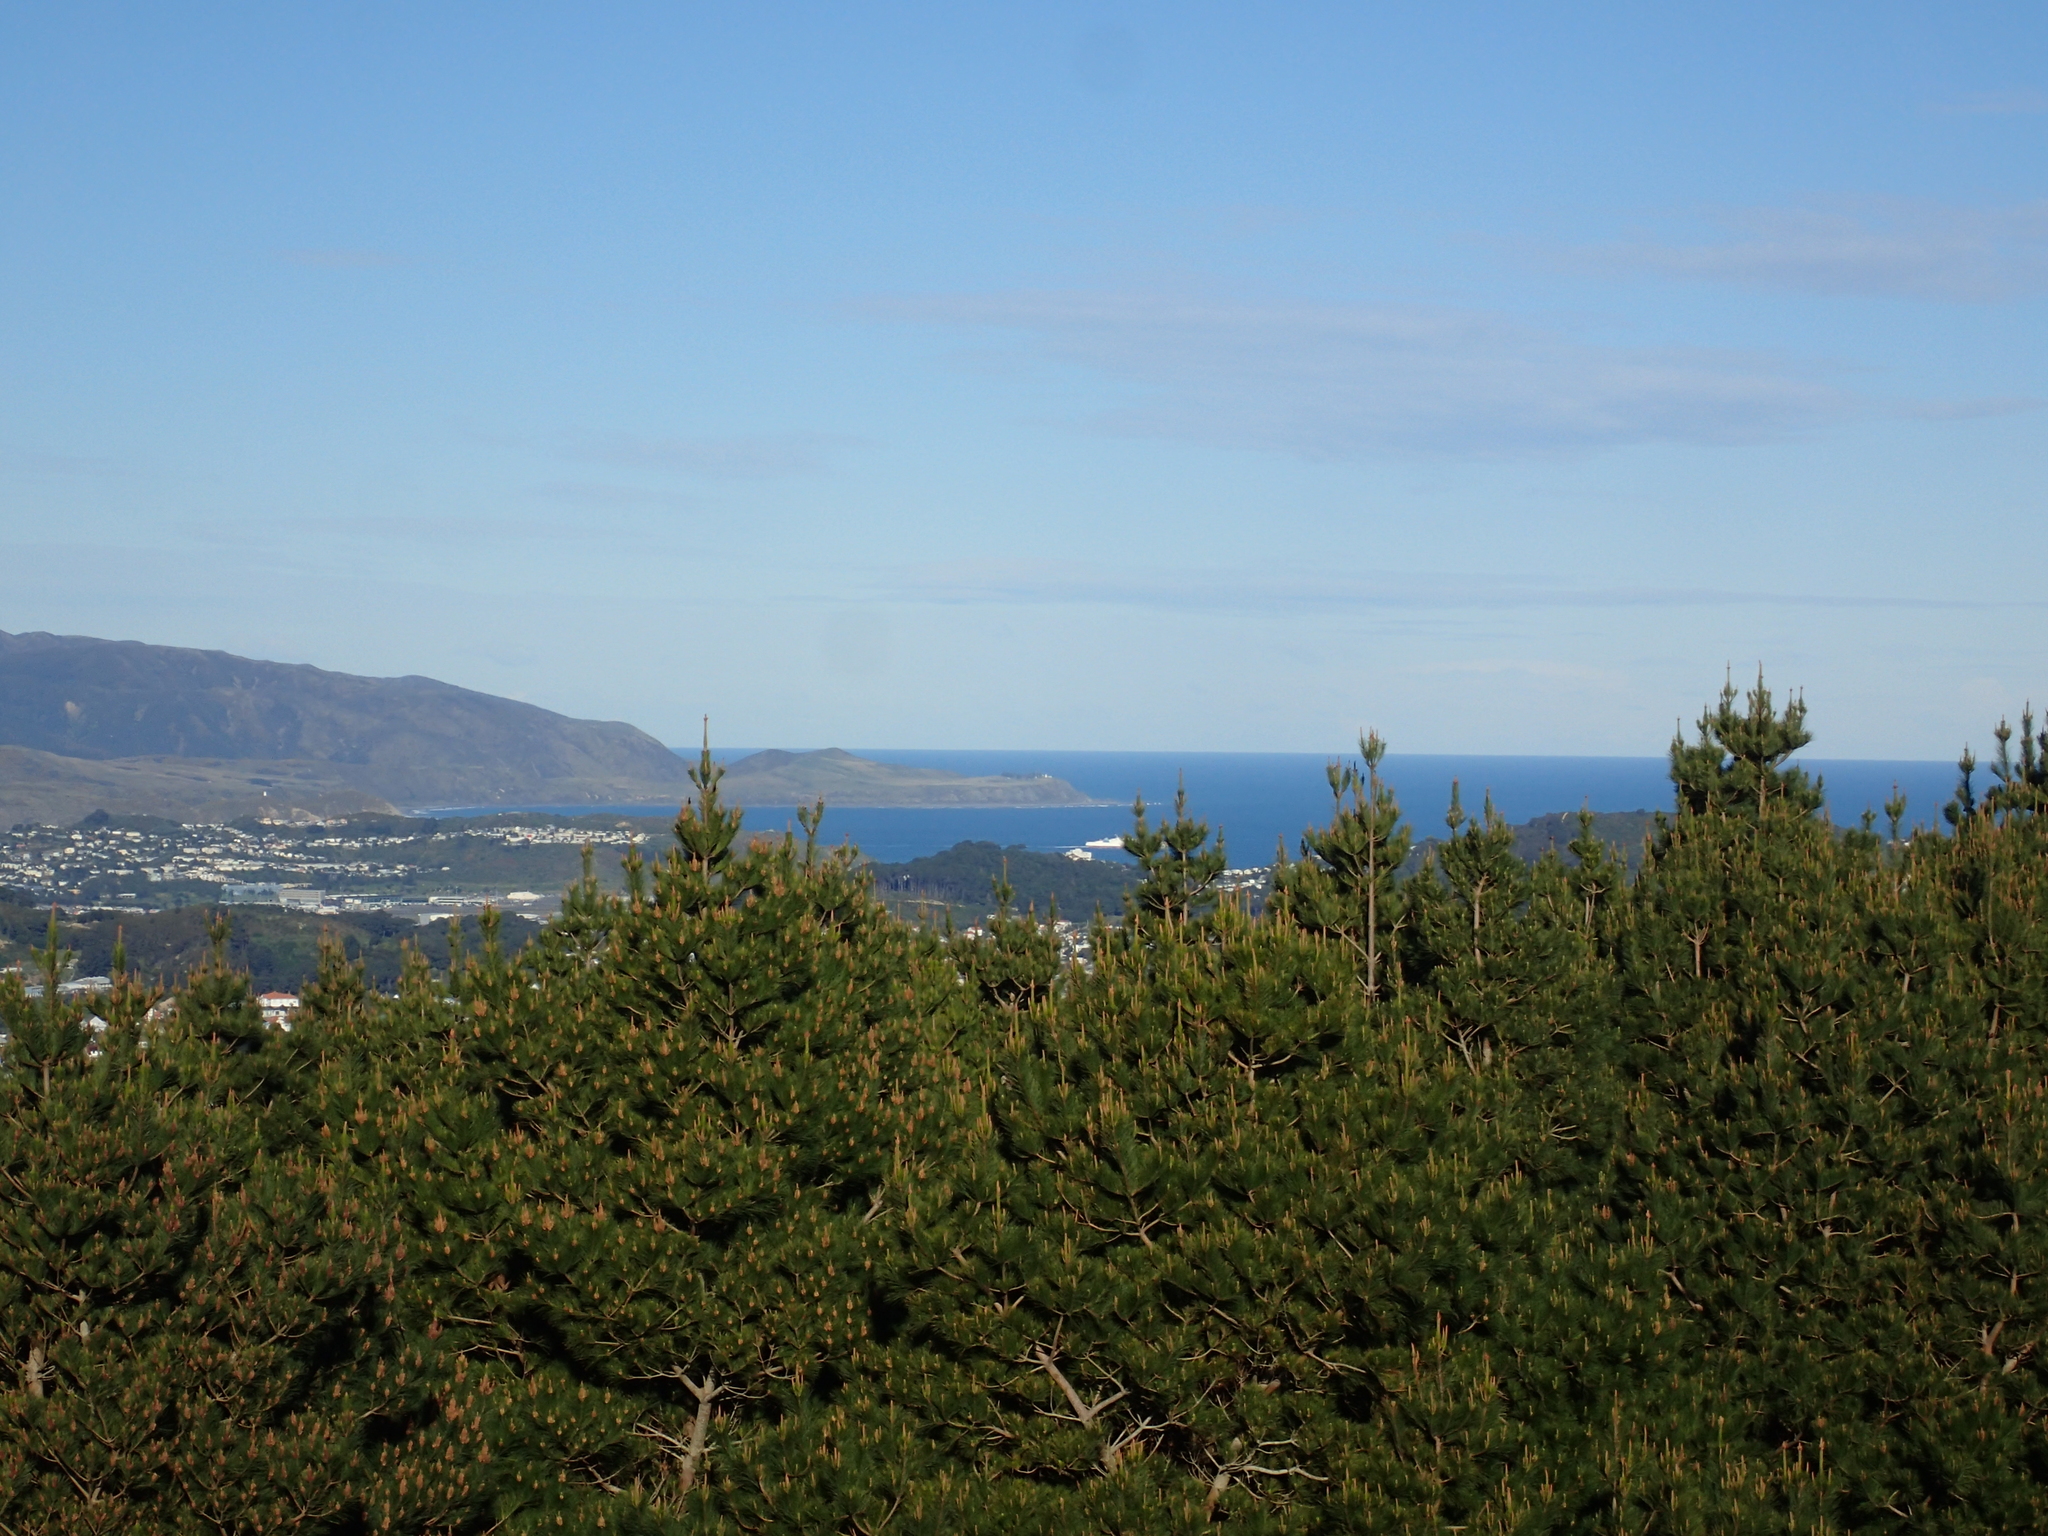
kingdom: Plantae
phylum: Tracheophyta
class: Pinopsida
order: Pinales
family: Pinaceae
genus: Pinus
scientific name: Pinus radiata
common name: Monterey pine
